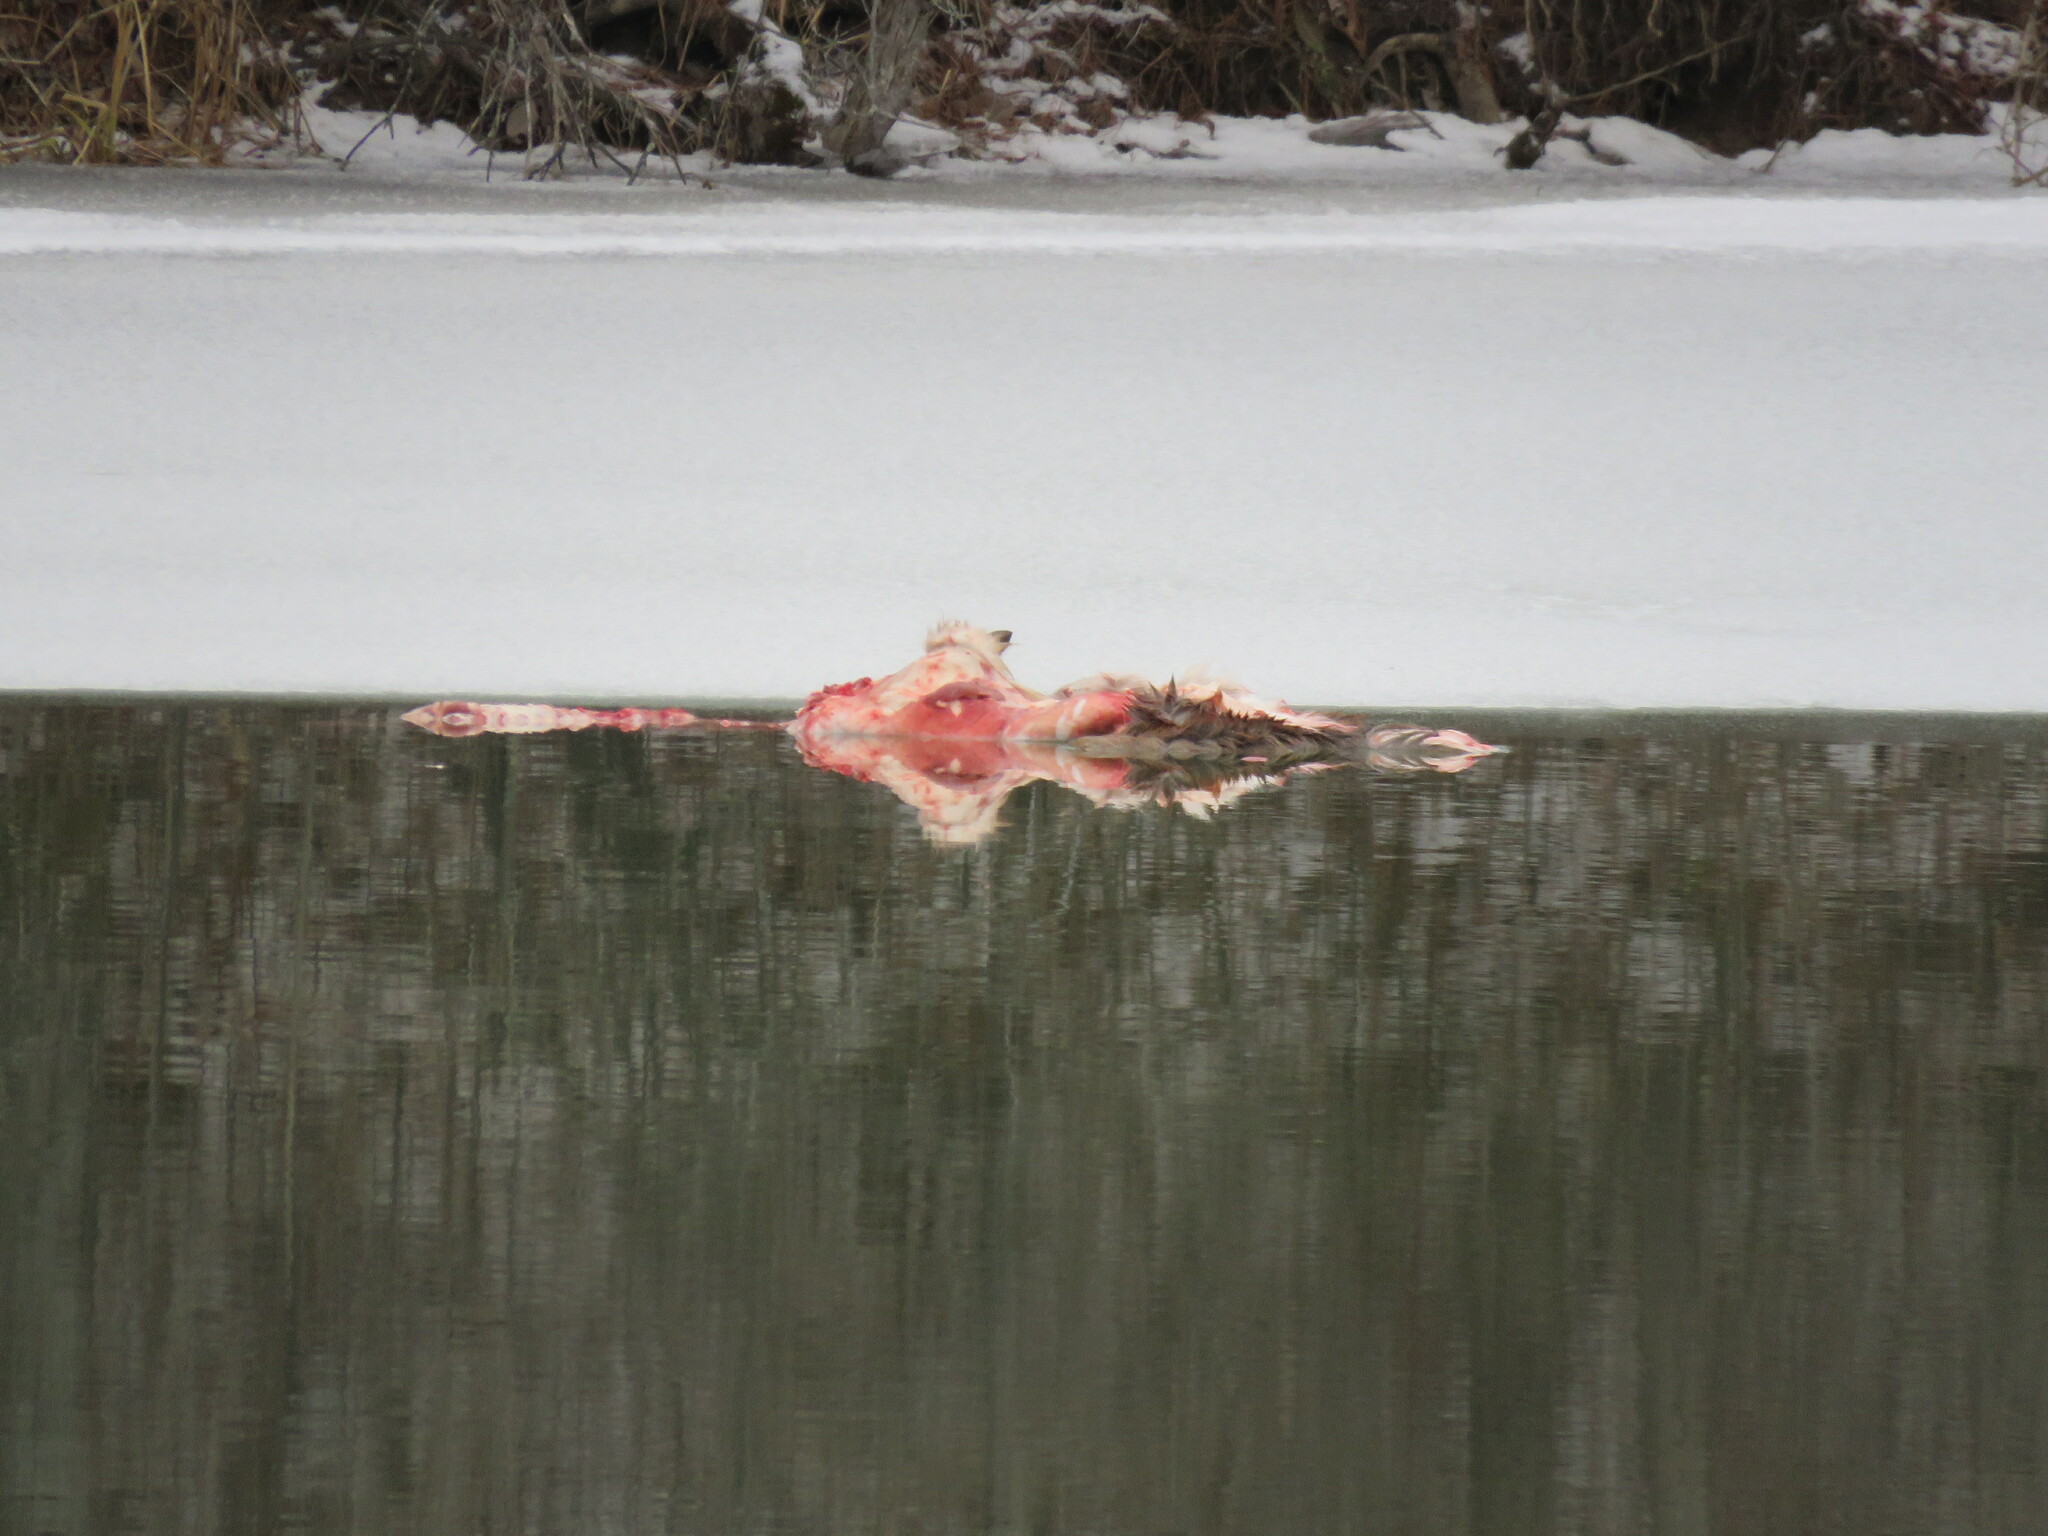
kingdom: Animalia
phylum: Chordata
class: Mammalia
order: Artiodactyla
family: Cervidae
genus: Odocoileus
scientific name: Odocoileus virginianus
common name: White-tailed deer
